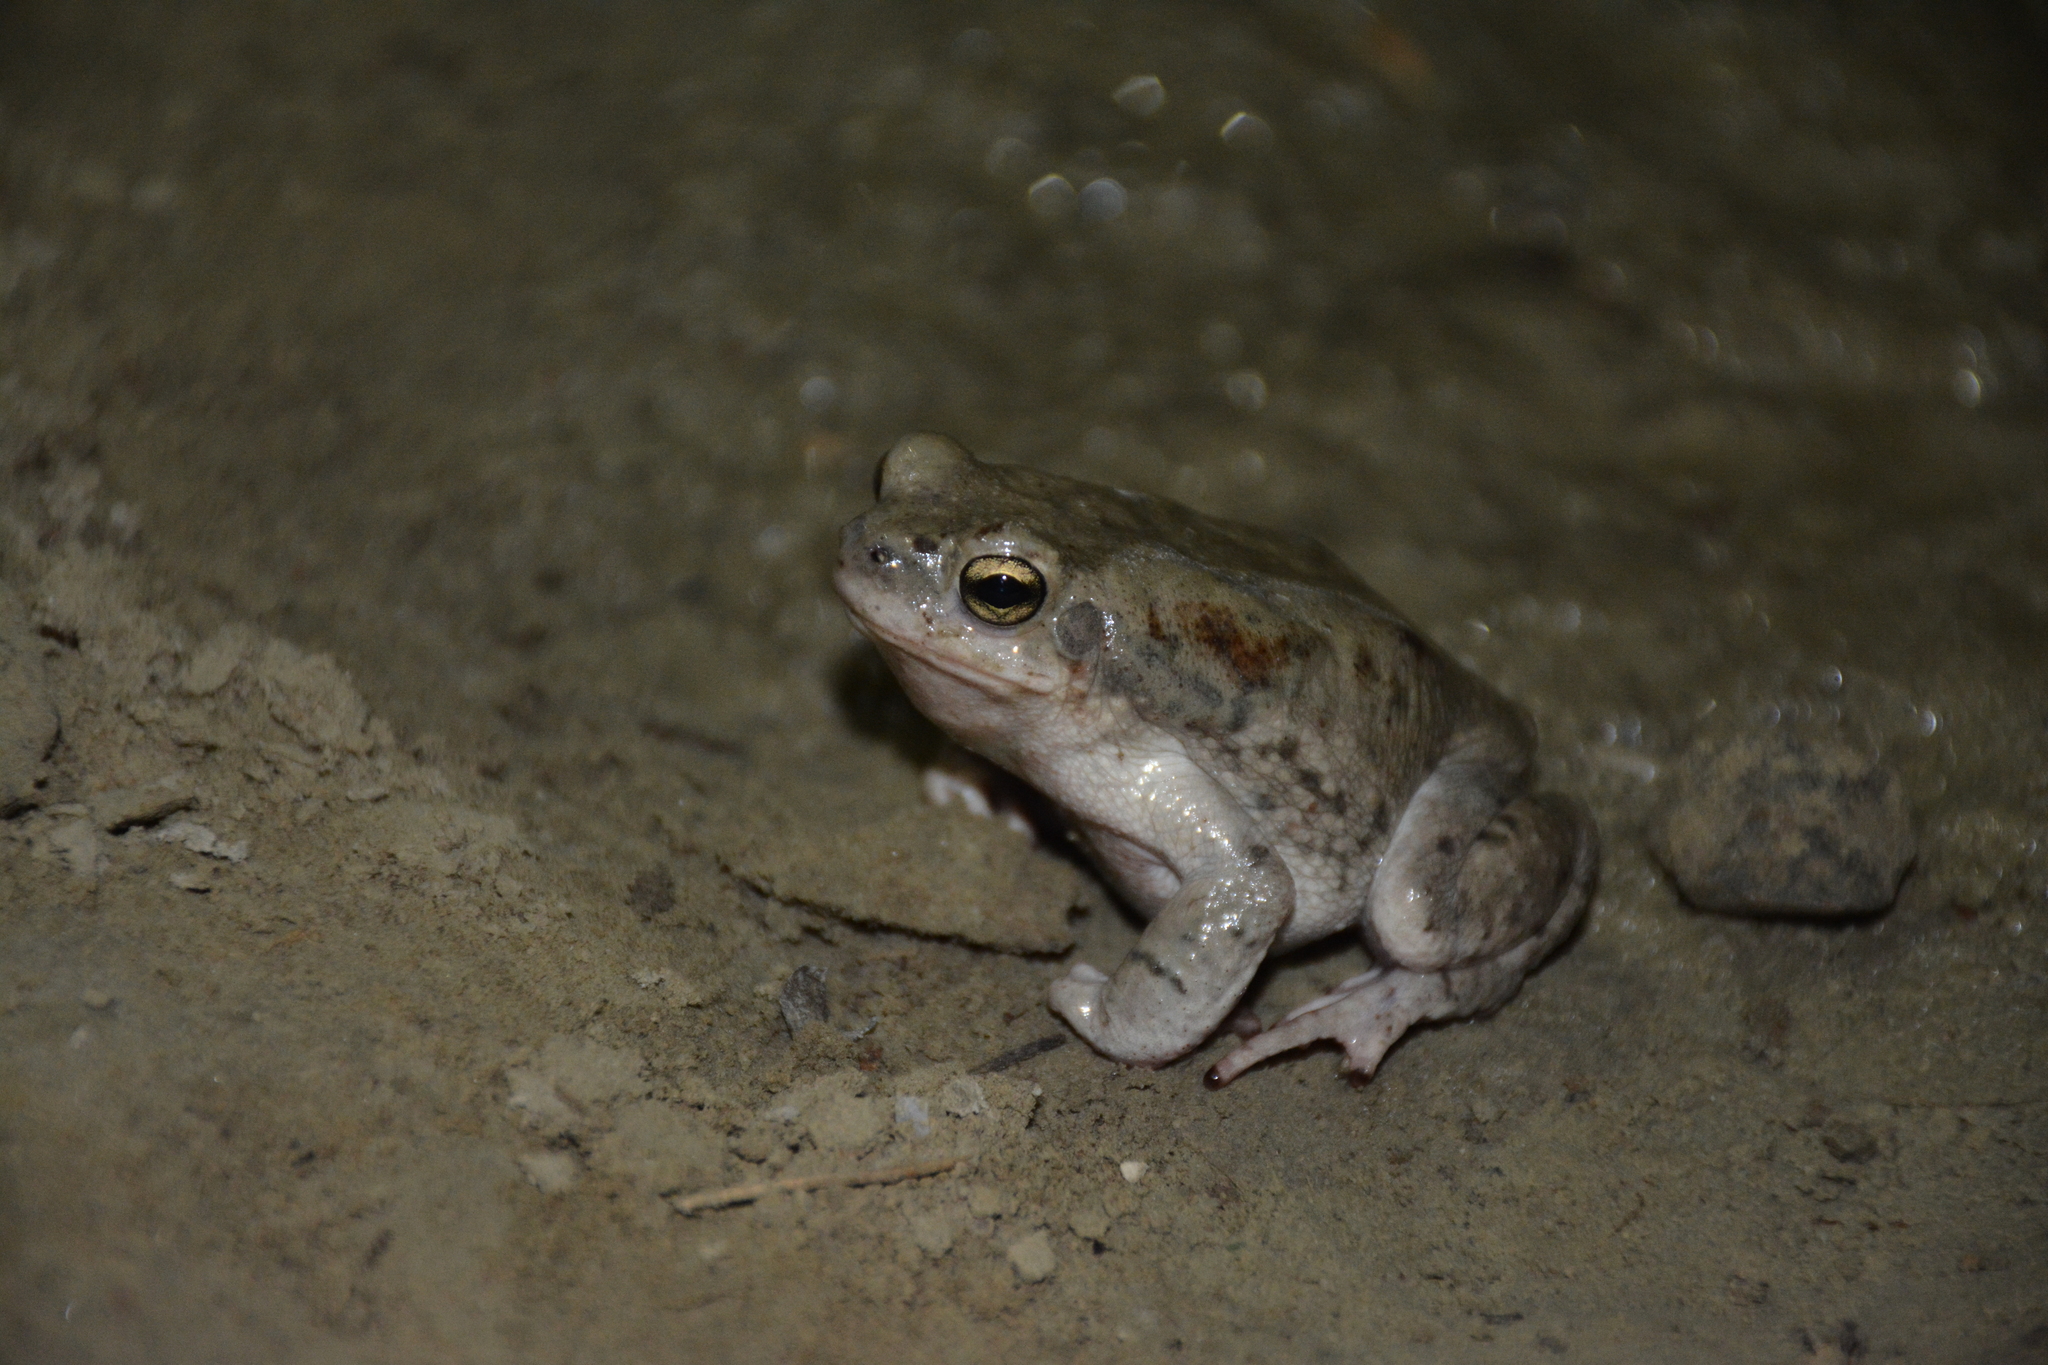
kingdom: Animalia
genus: Firouzophrynus
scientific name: Firouzophrynus
